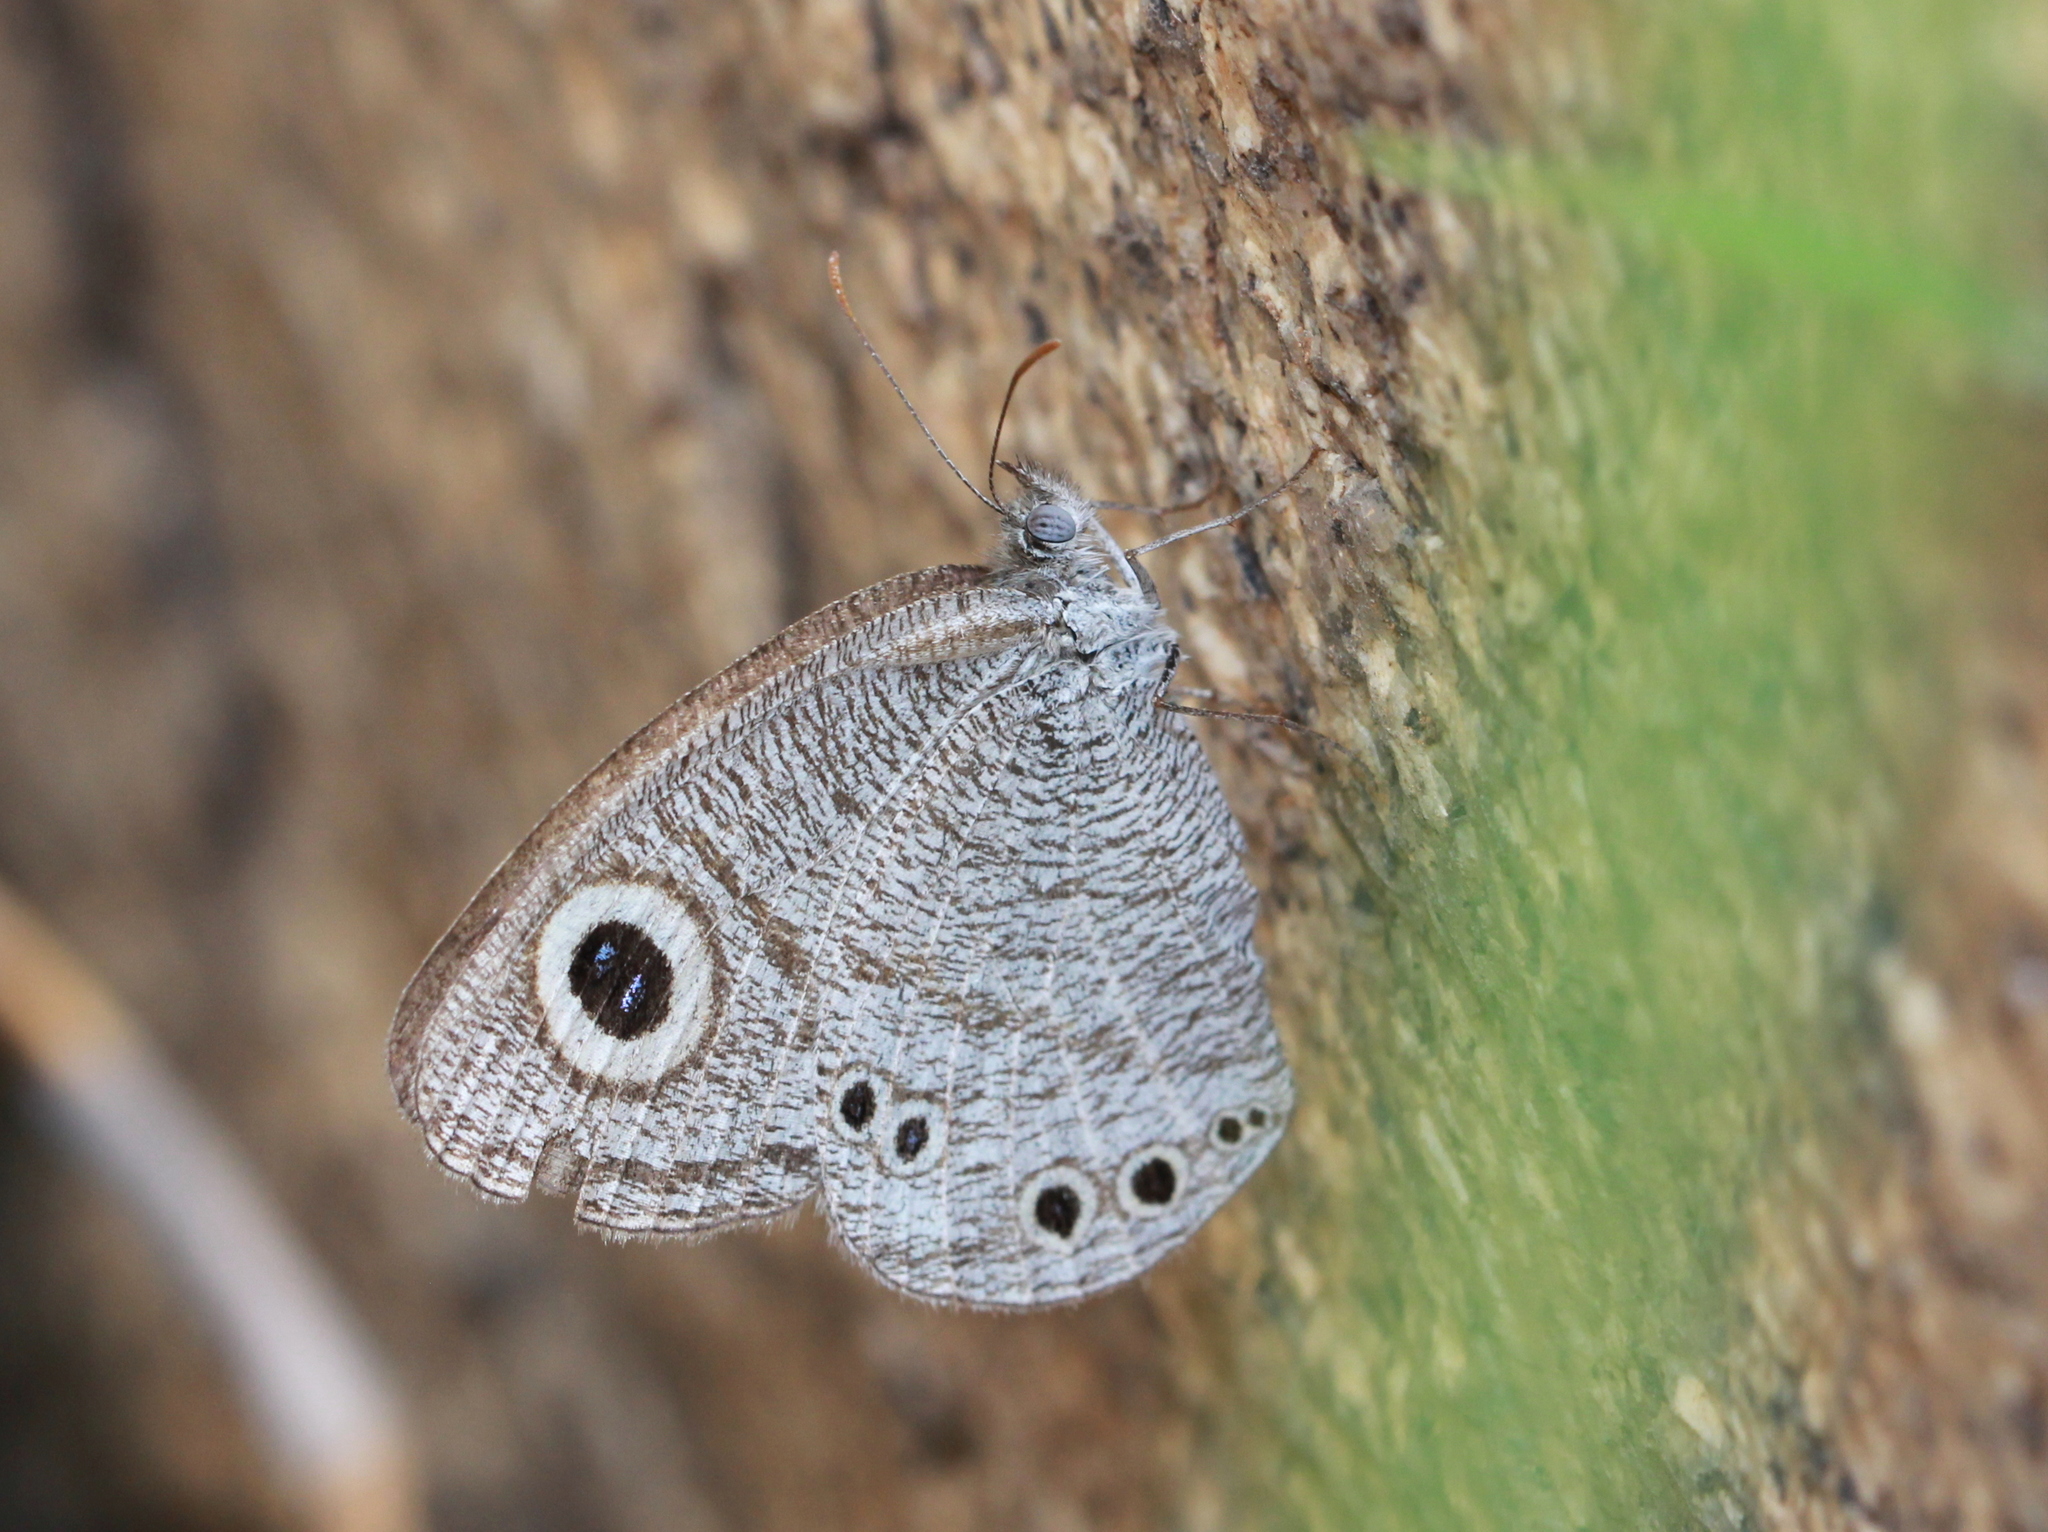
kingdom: Animalia
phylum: Arthropoda
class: Insecta
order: Lepidoptera
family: Nymphalidae
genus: Ypthima
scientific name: Ypthima avanta
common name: Jewel five-ring
